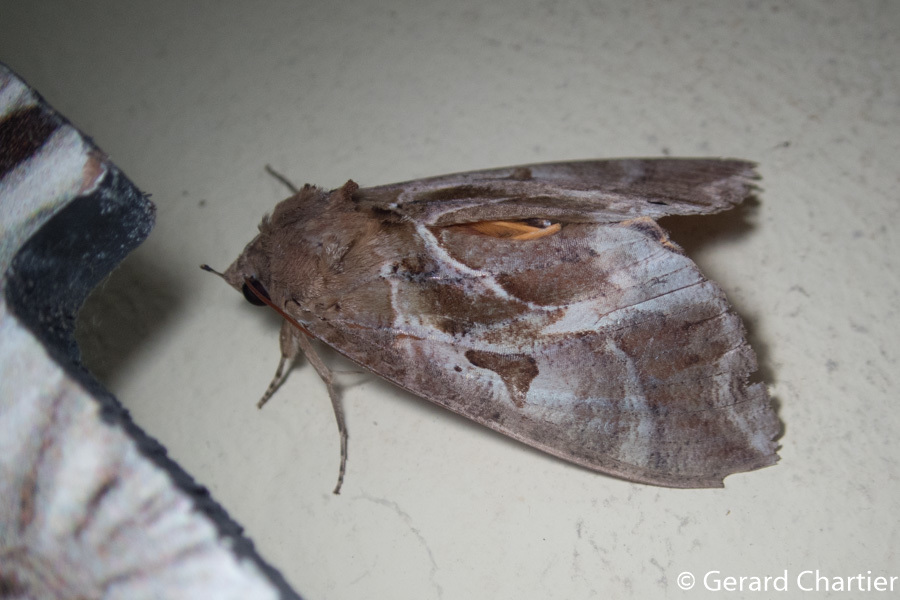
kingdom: Animalia
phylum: Arthropoda
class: Insecta
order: Lepidoptera
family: Erebidae
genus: Eudocima
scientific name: Eudocima phalonia
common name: Wasp
